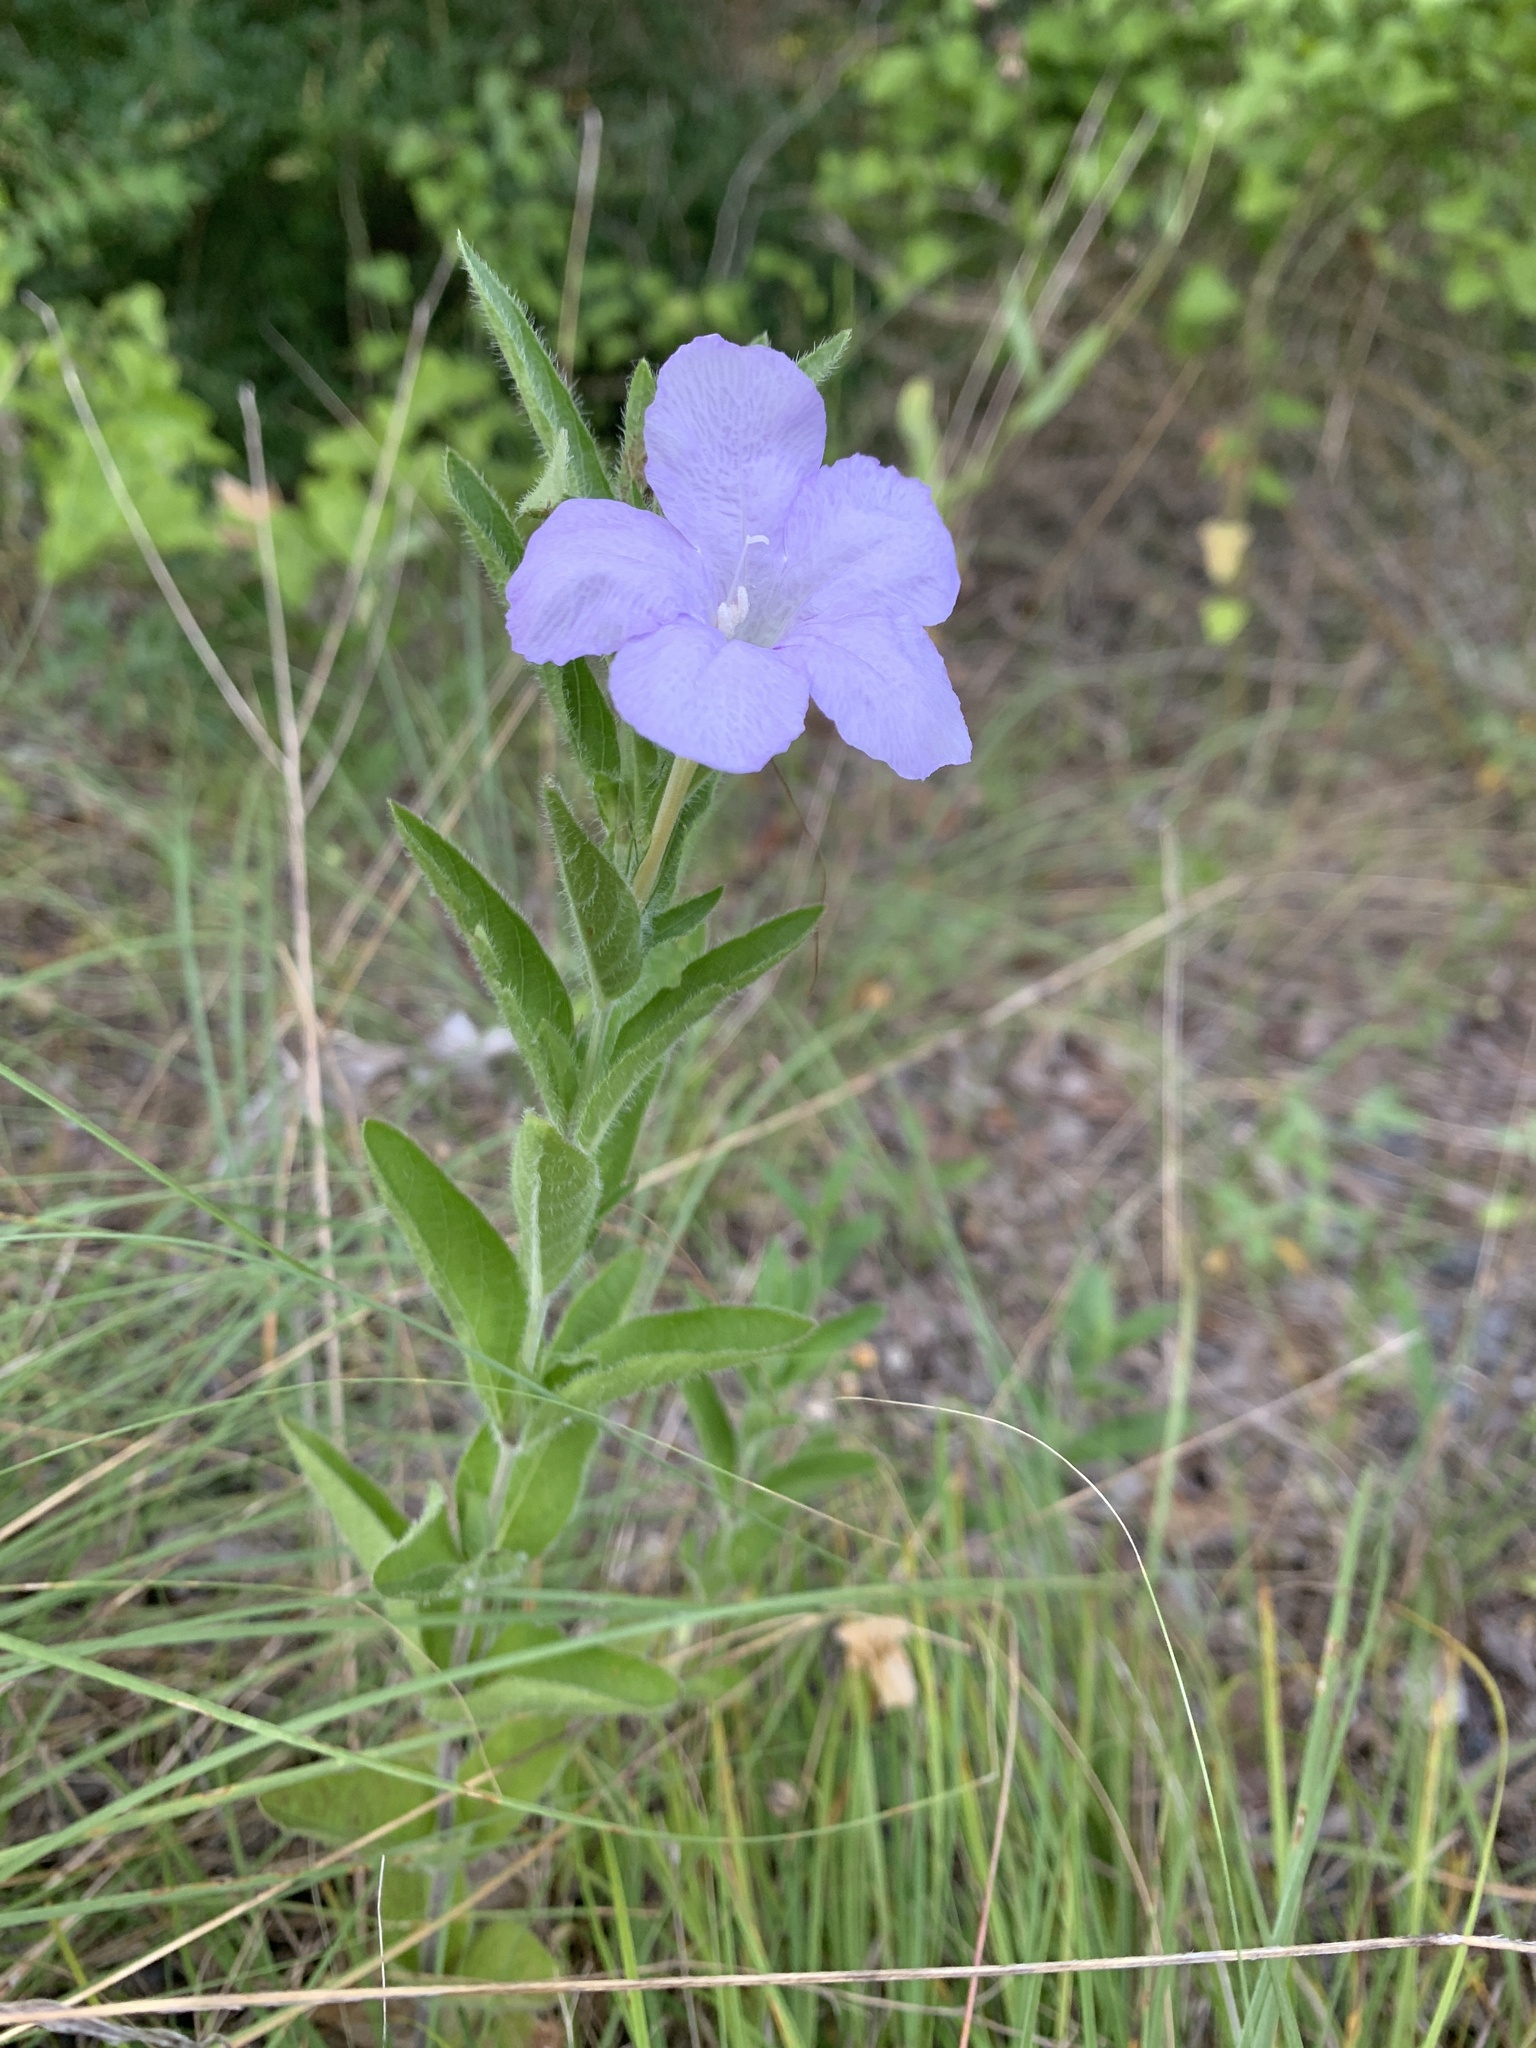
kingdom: Plantae
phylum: Tracheophyta
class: Magnoliopsida
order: Lamiales
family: Acanthaceae
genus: Ruellia
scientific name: Ruellia humilis
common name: Fringe-leaf ruellia
